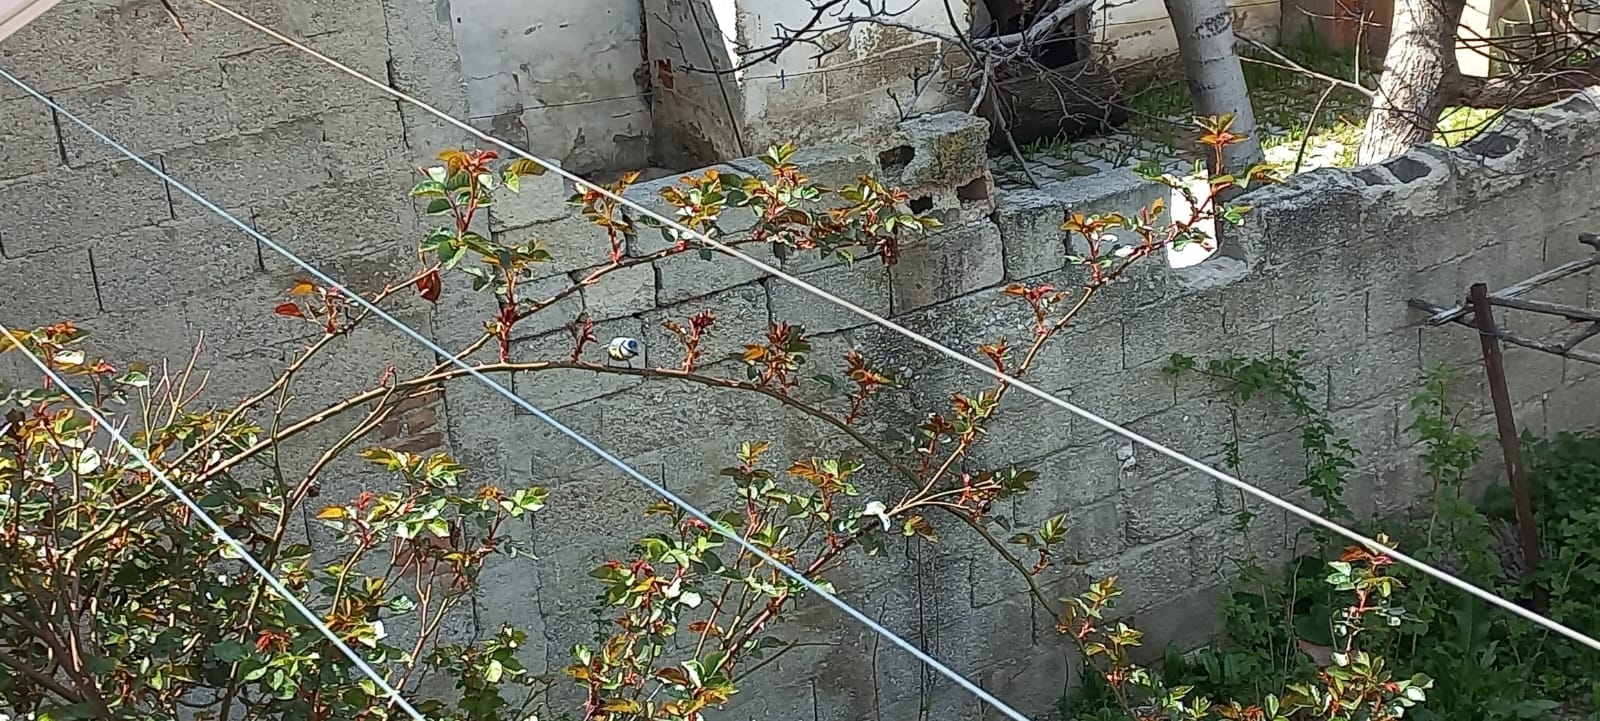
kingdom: Animalia
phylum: Chordata
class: Aves
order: Passeriformes
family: Paridae
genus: Cyanistes
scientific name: Cyanistes caeruleus
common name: Eurasian blue tit
